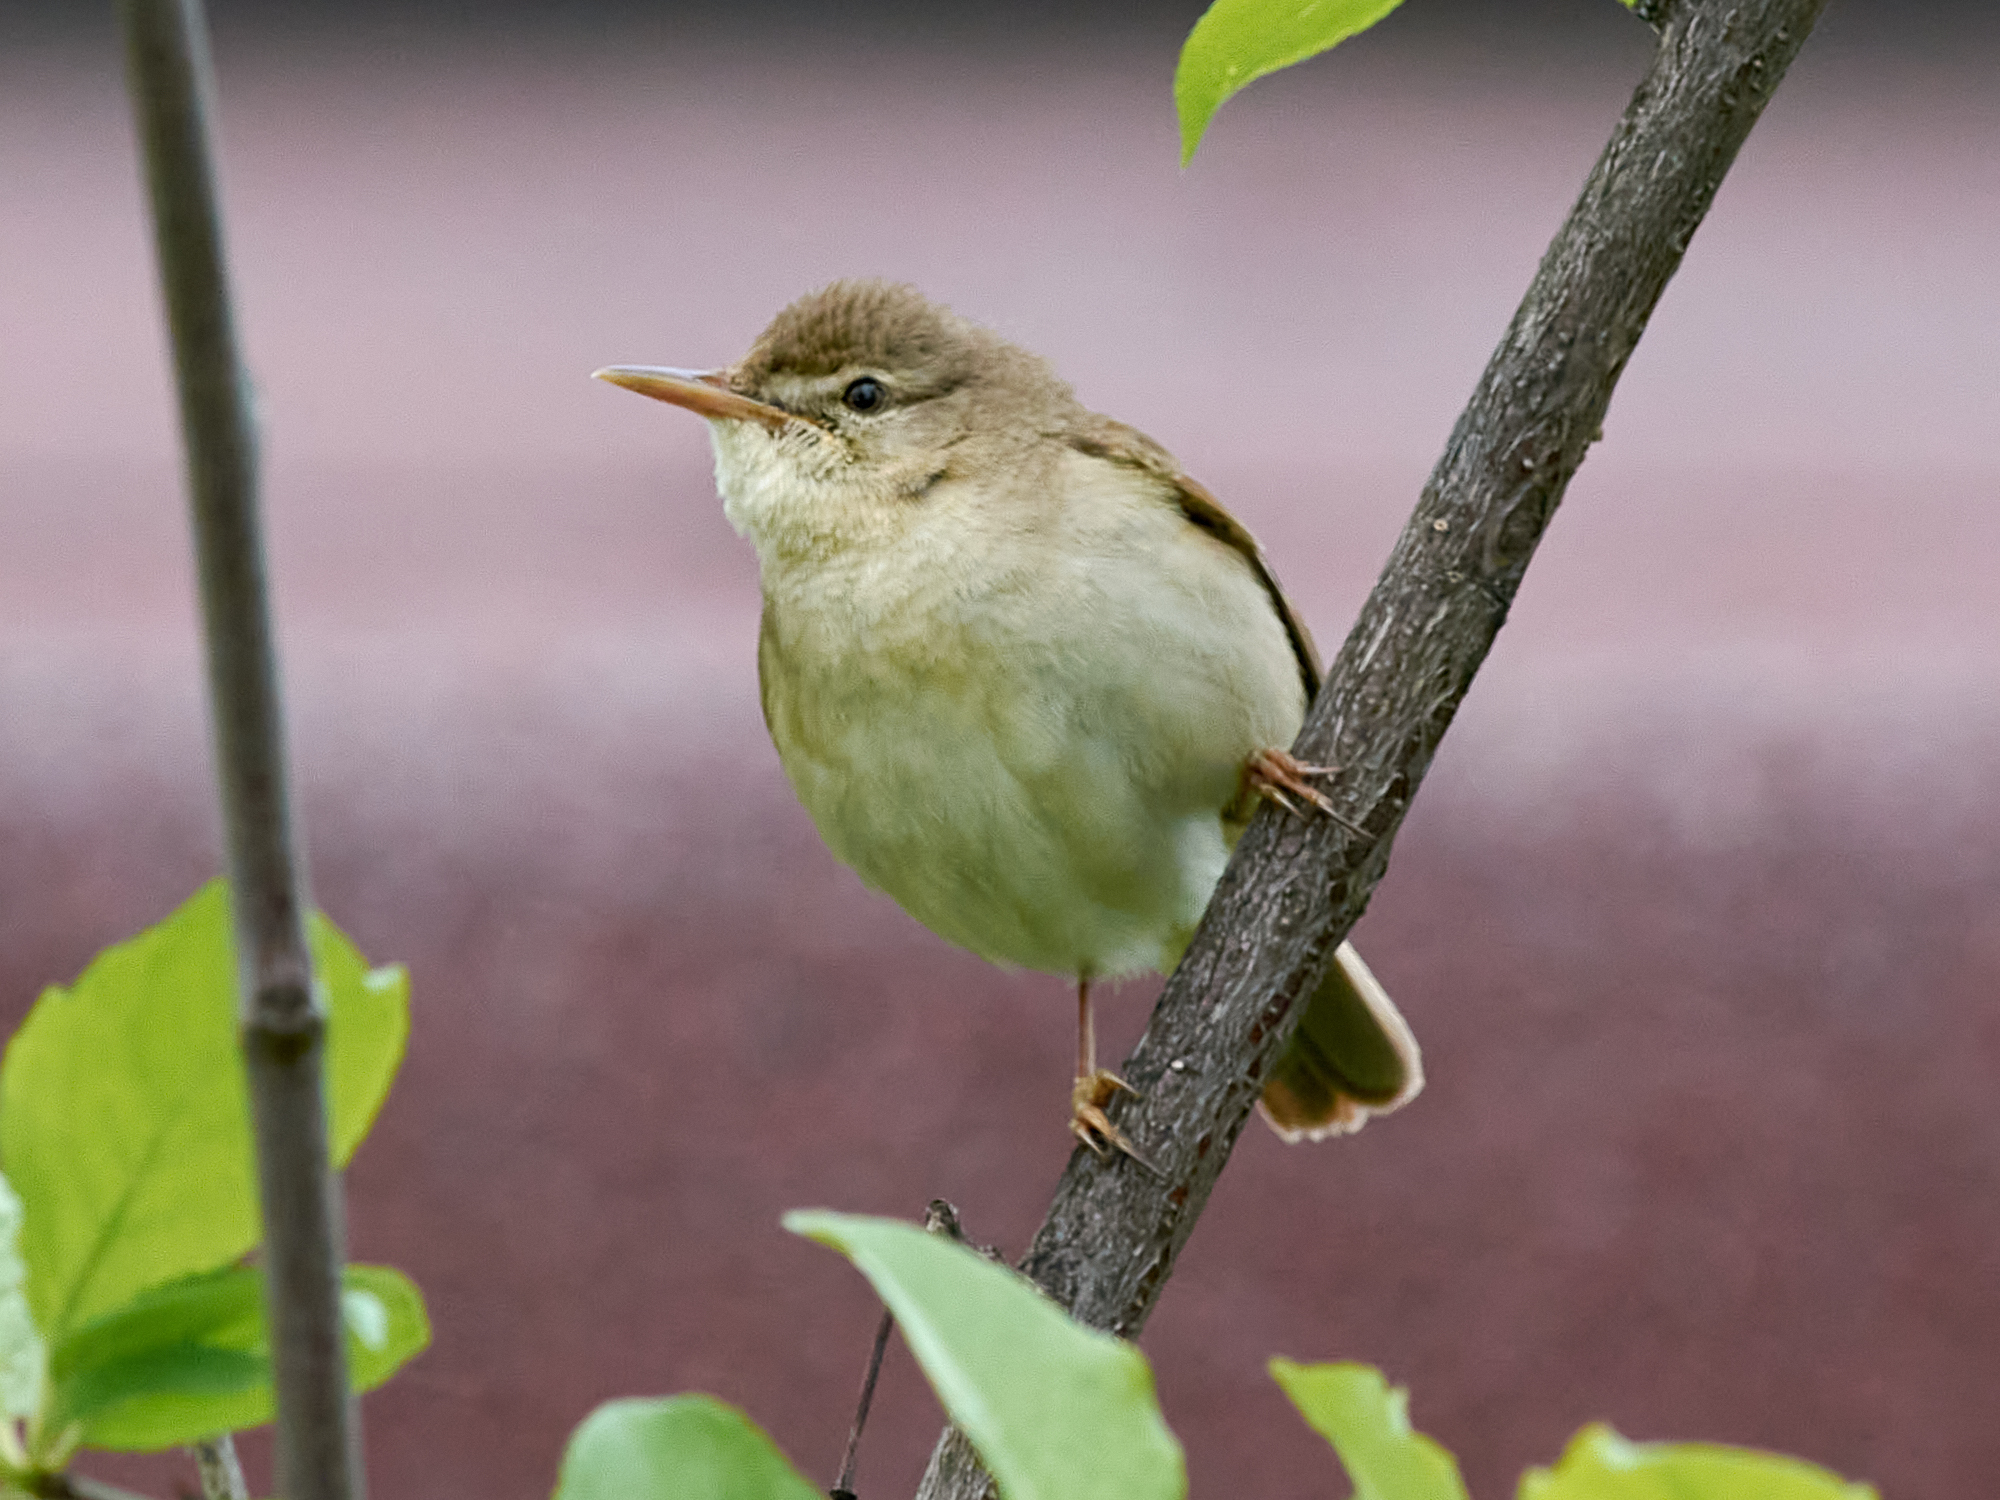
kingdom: Animalia
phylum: Chordata
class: Aves
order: Passeriformes
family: Acrocephalidae
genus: Acrocephalus
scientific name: Acrocephalus palustris
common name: Marsh warbler
